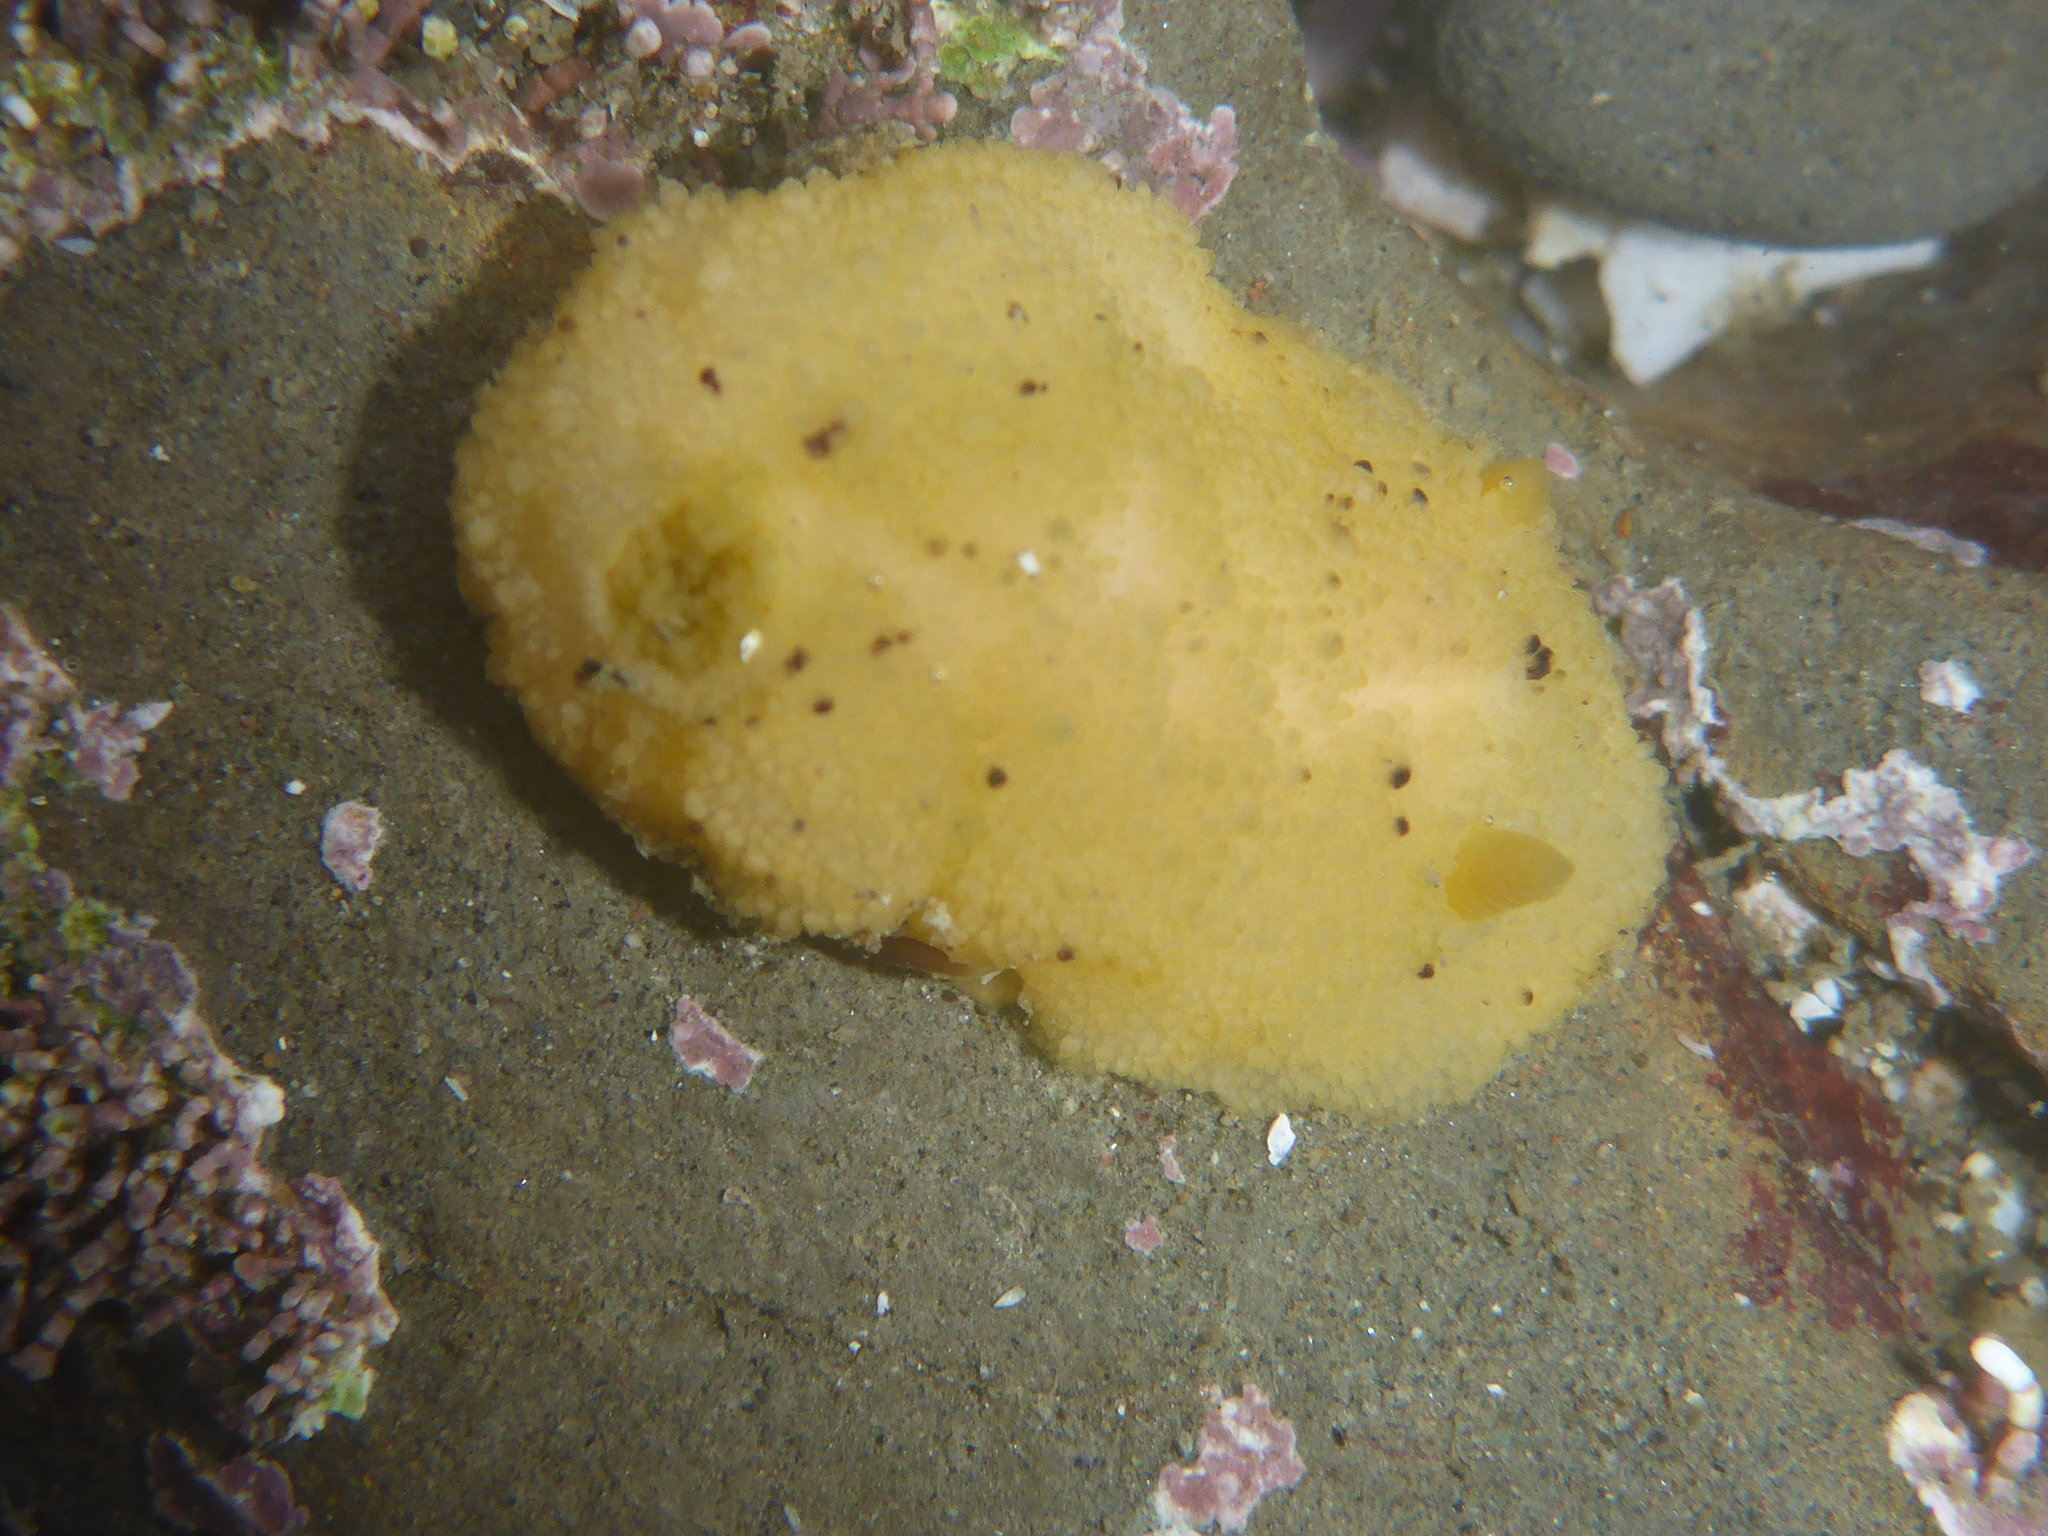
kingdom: Animalia
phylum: Mollusca
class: Gastropoda
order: Nudibranchia
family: Dorididae
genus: Doris
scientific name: Doris montereyensis
